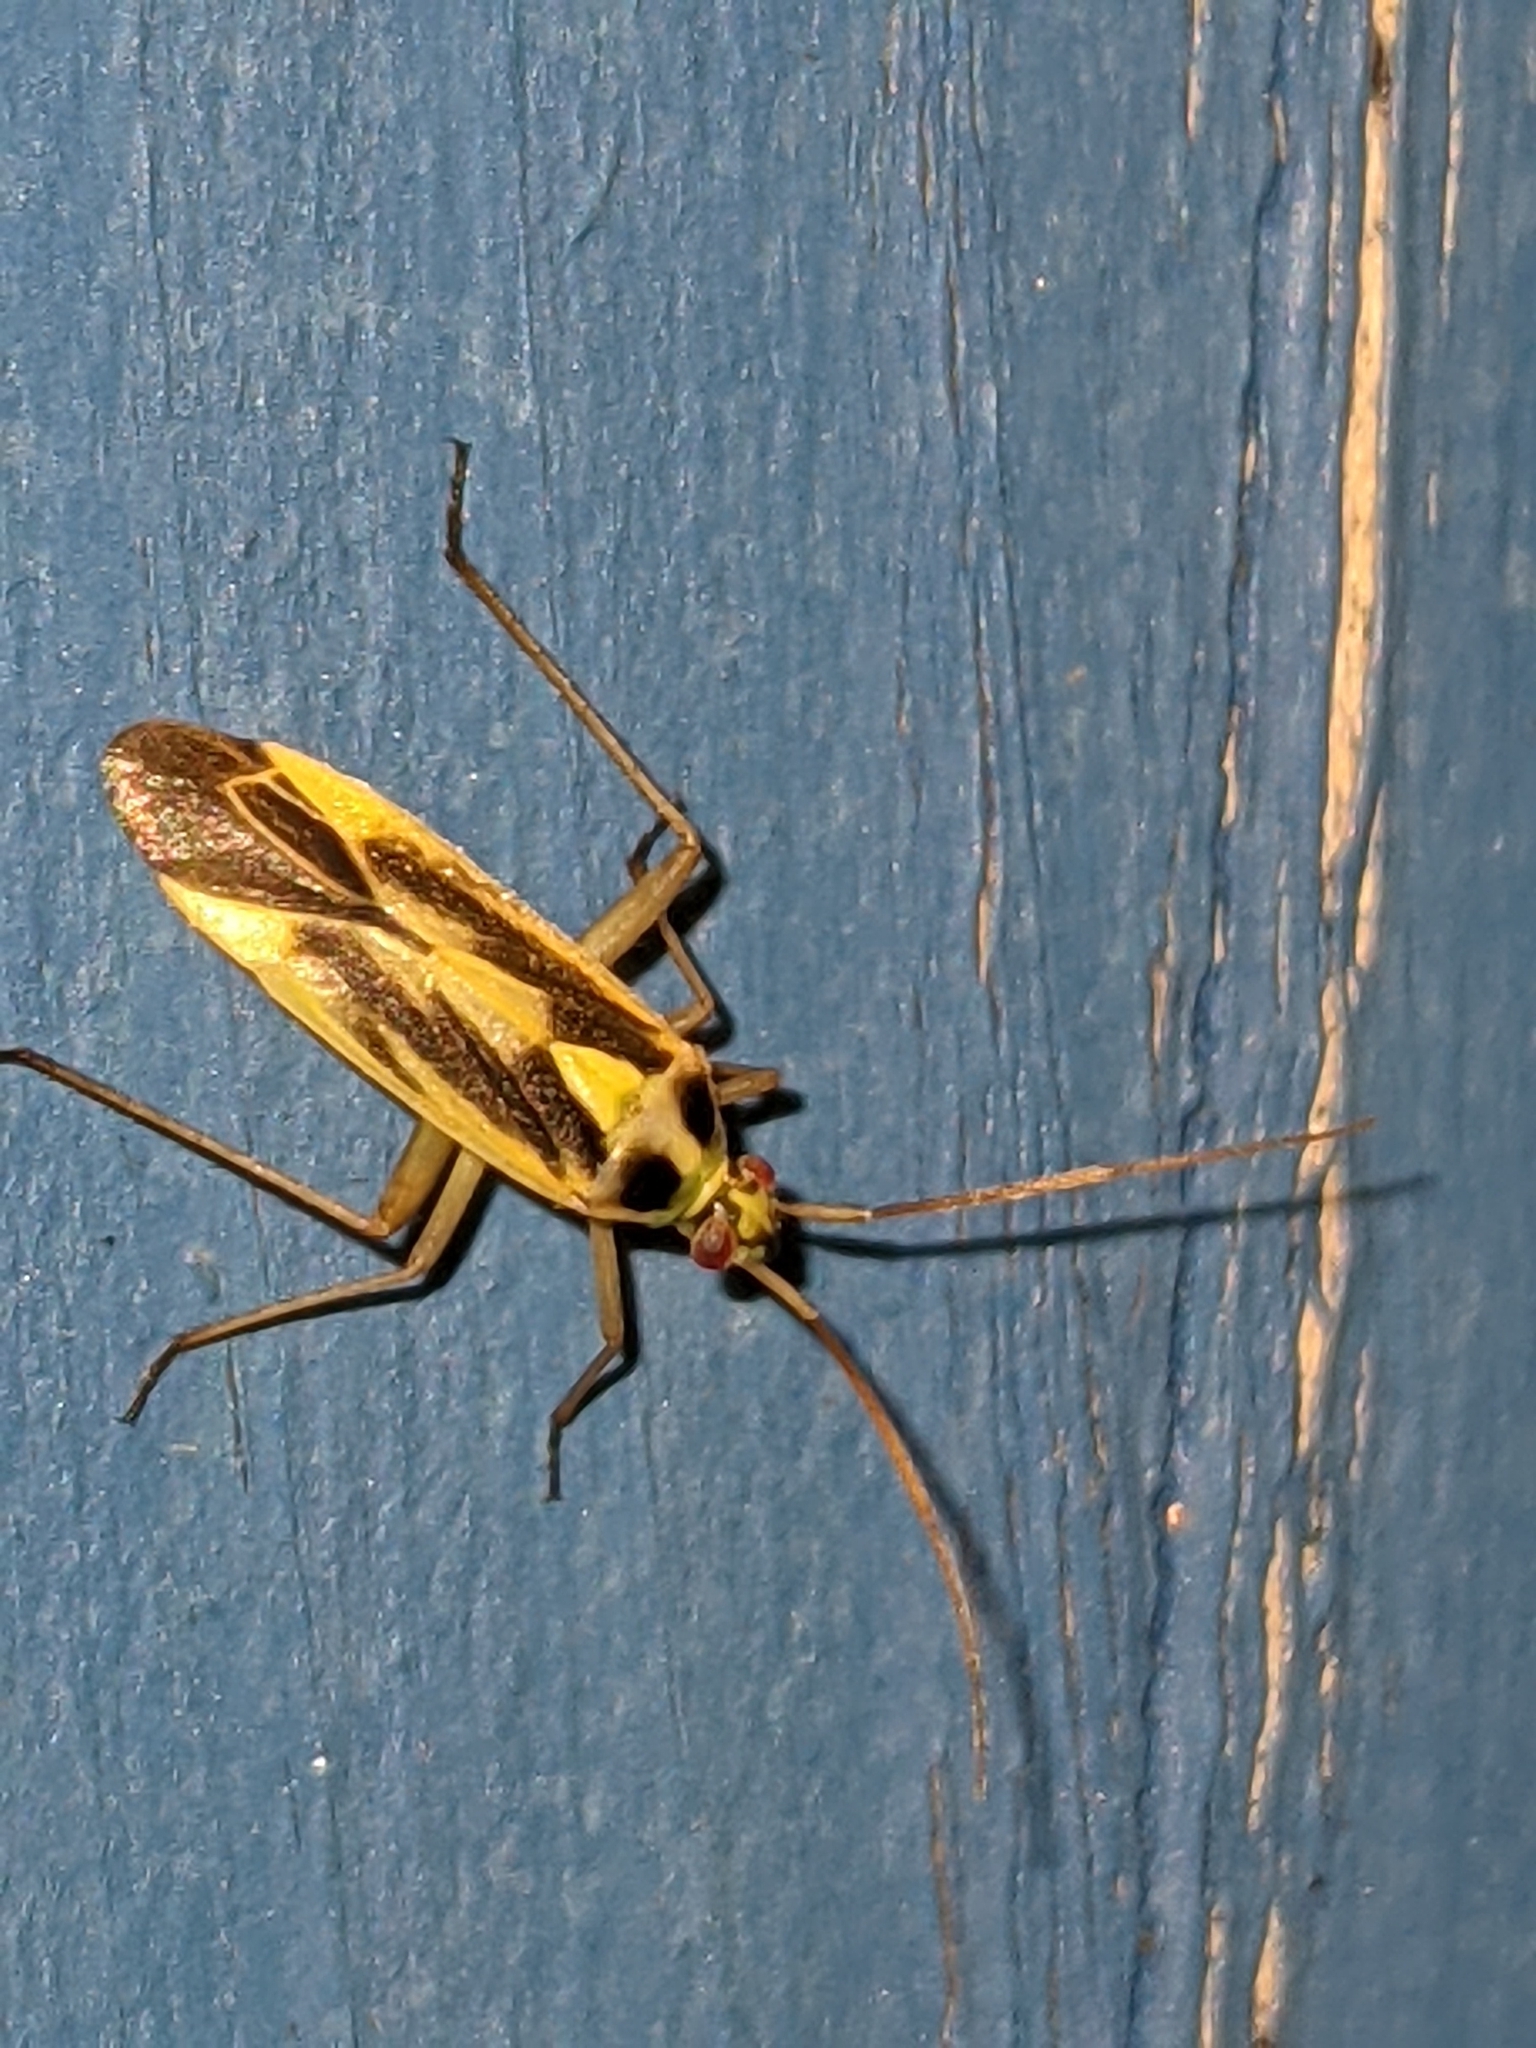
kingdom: Animalia
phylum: Arthropoda
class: Insecta
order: Hemiptera
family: Miridae
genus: Stenotus
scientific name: Stenotus binotatus
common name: Plant bug
